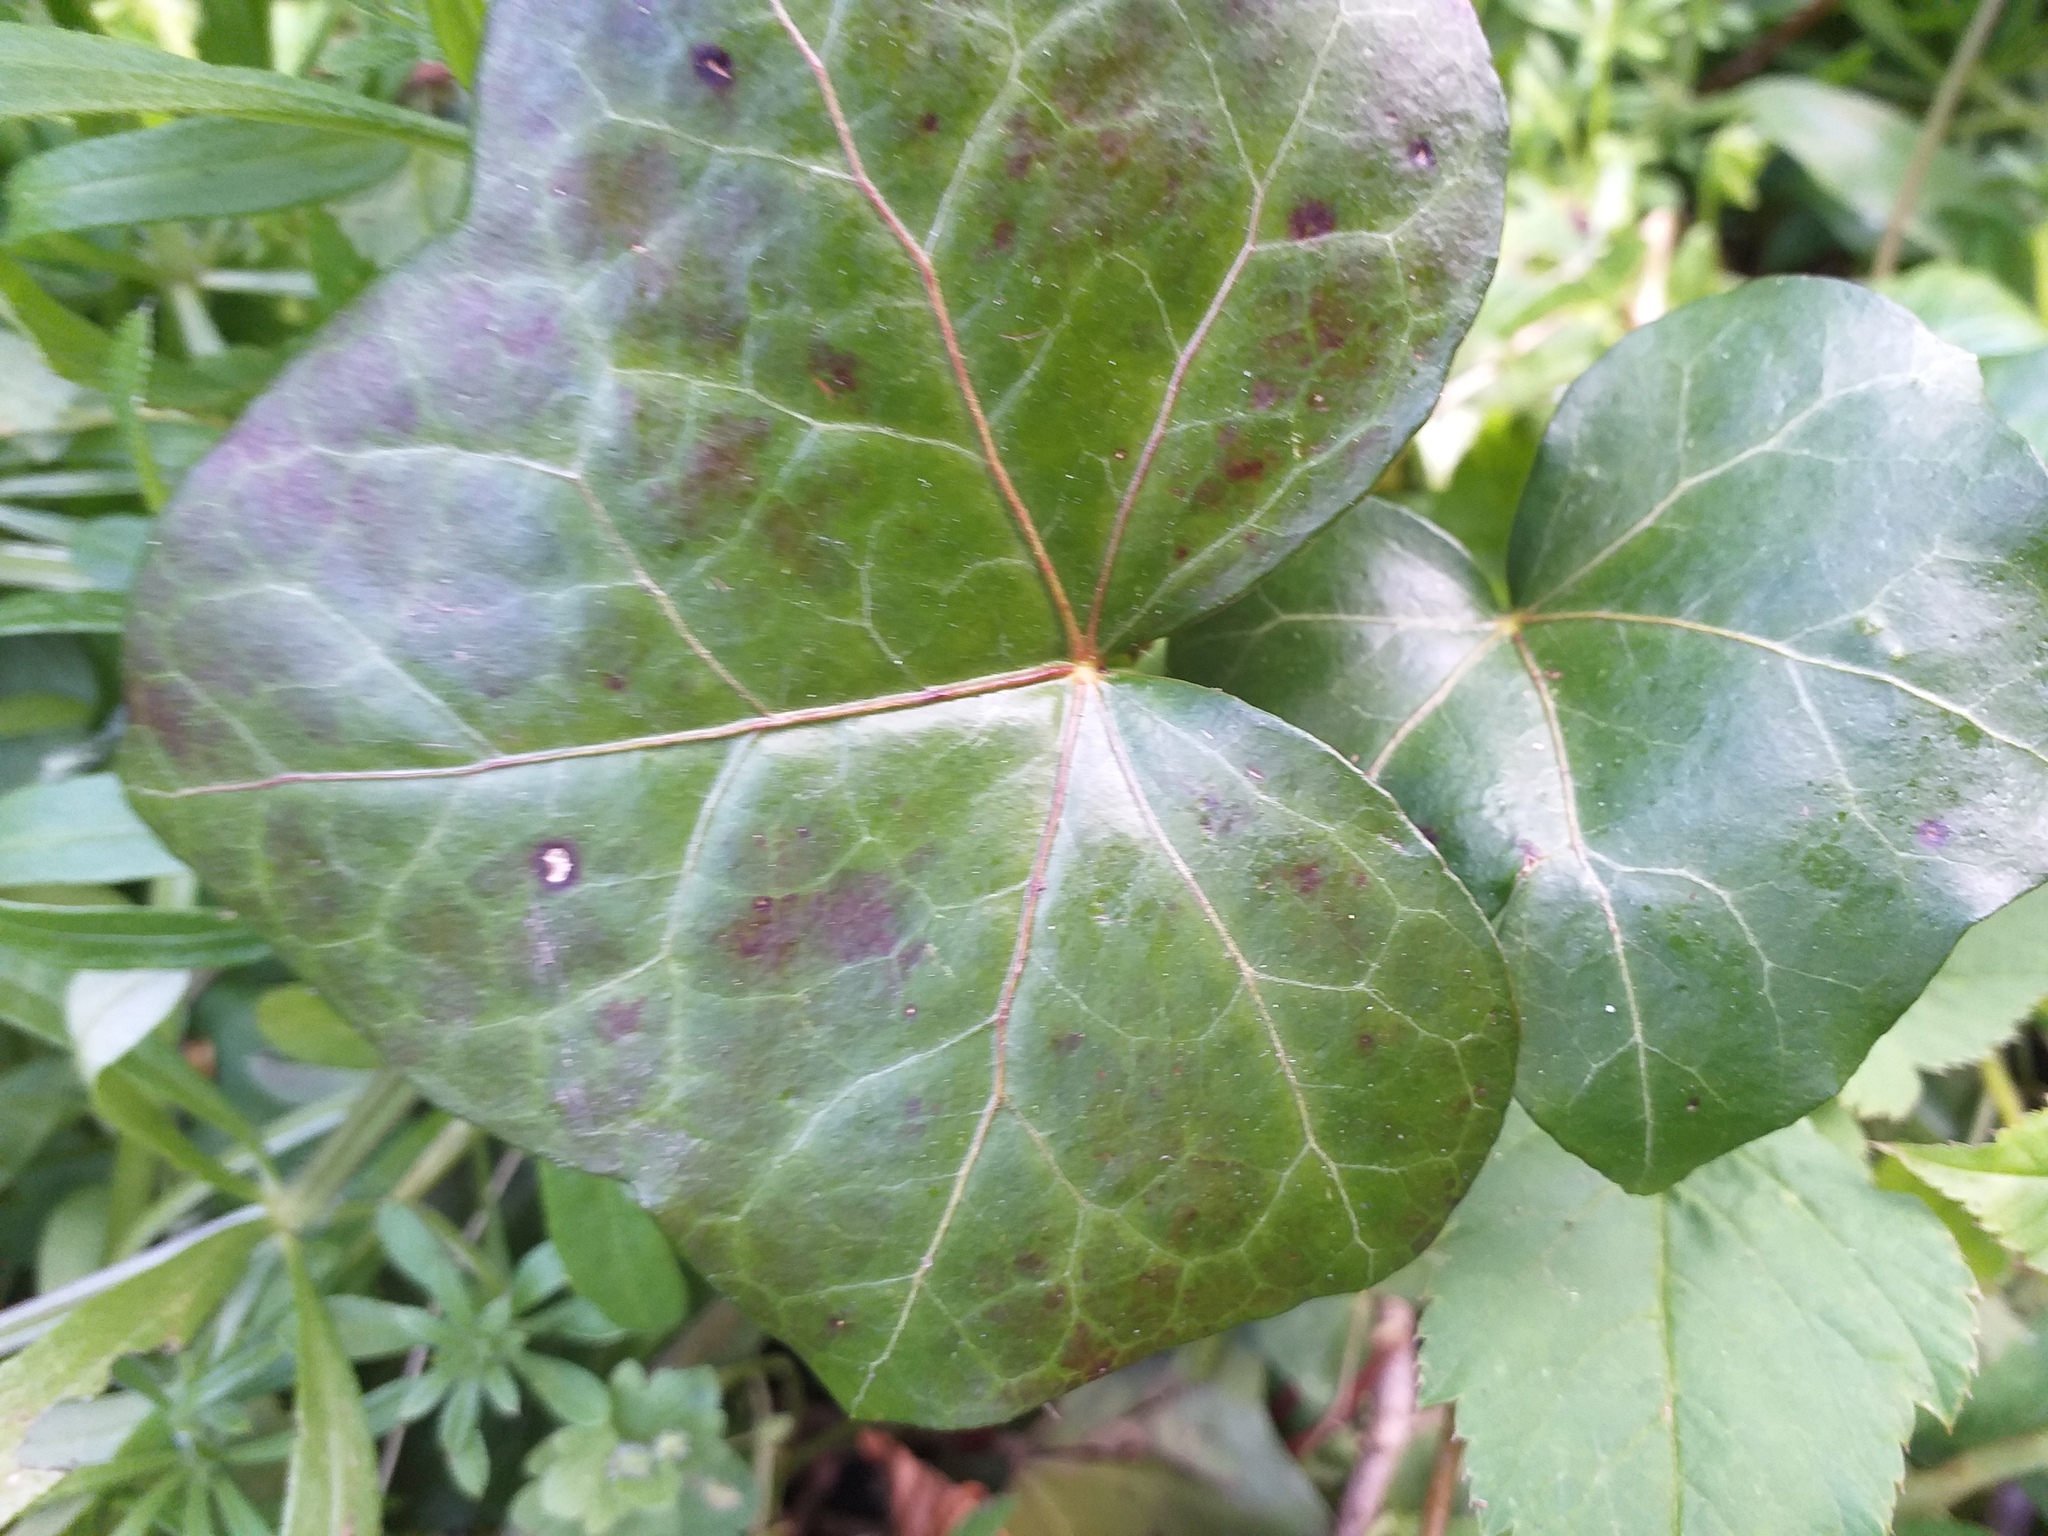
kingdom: Plantae
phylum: Tracheophyta
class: Magnoliopsida
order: Apiales
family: Araliaceae
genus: Hedera
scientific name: Hedera helix
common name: Ivy
